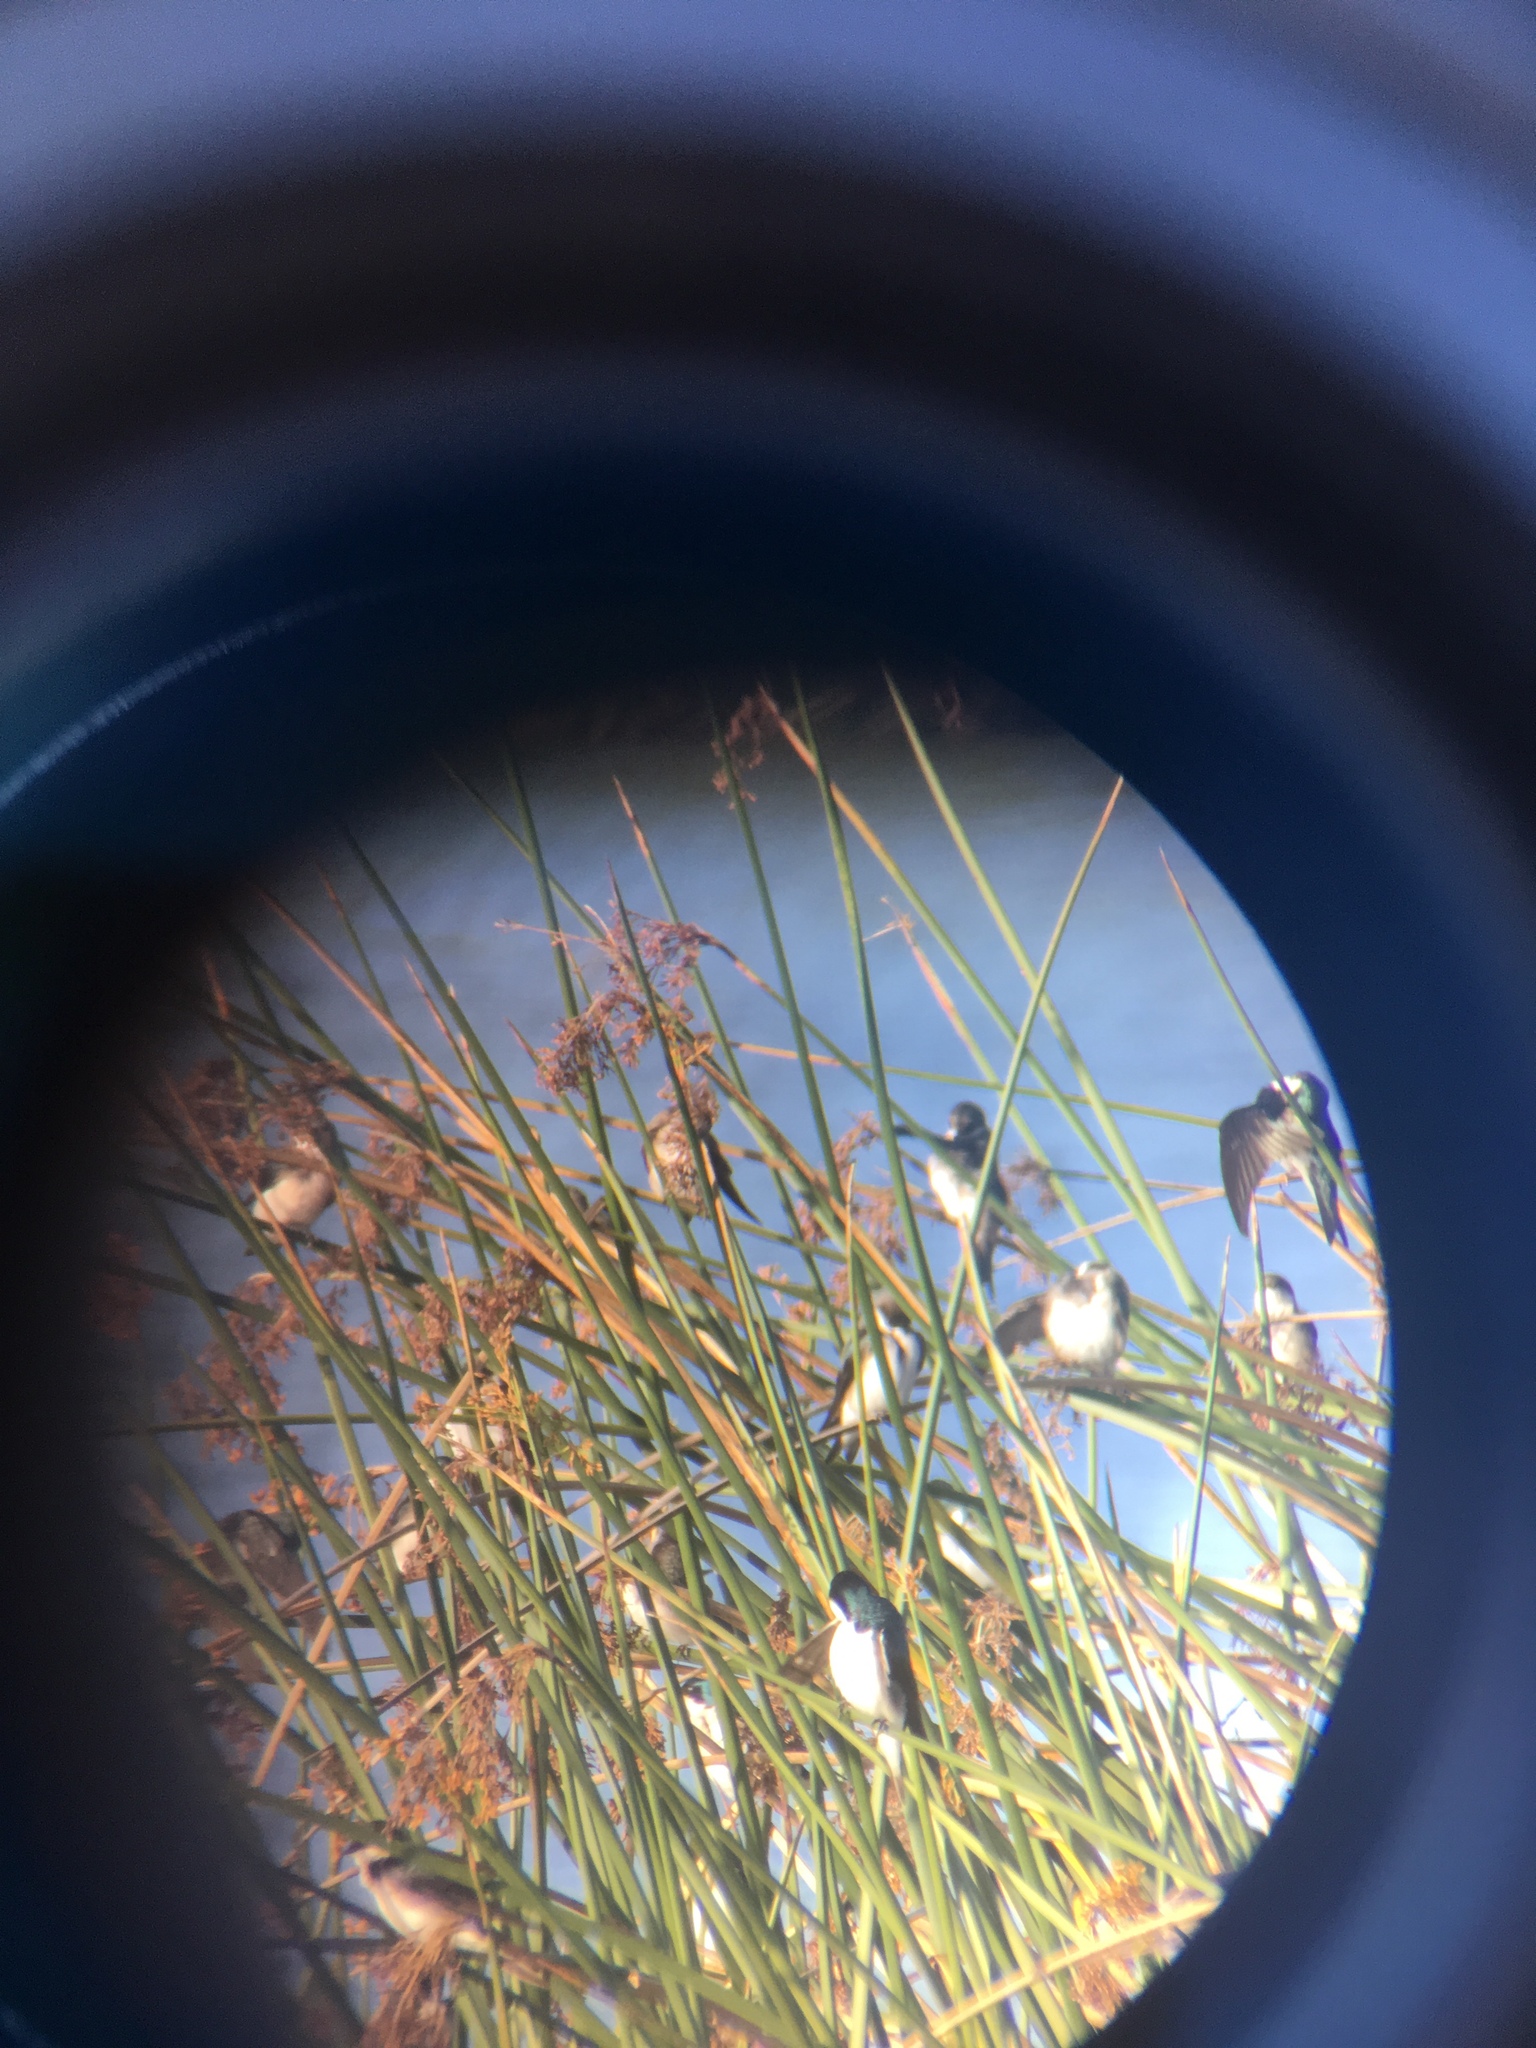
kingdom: Animalia
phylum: Chordata
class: Aves
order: Passeriformes
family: Hirundinidae
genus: Tachycineta
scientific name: Tachycineta bicolor
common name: Tree swallow
